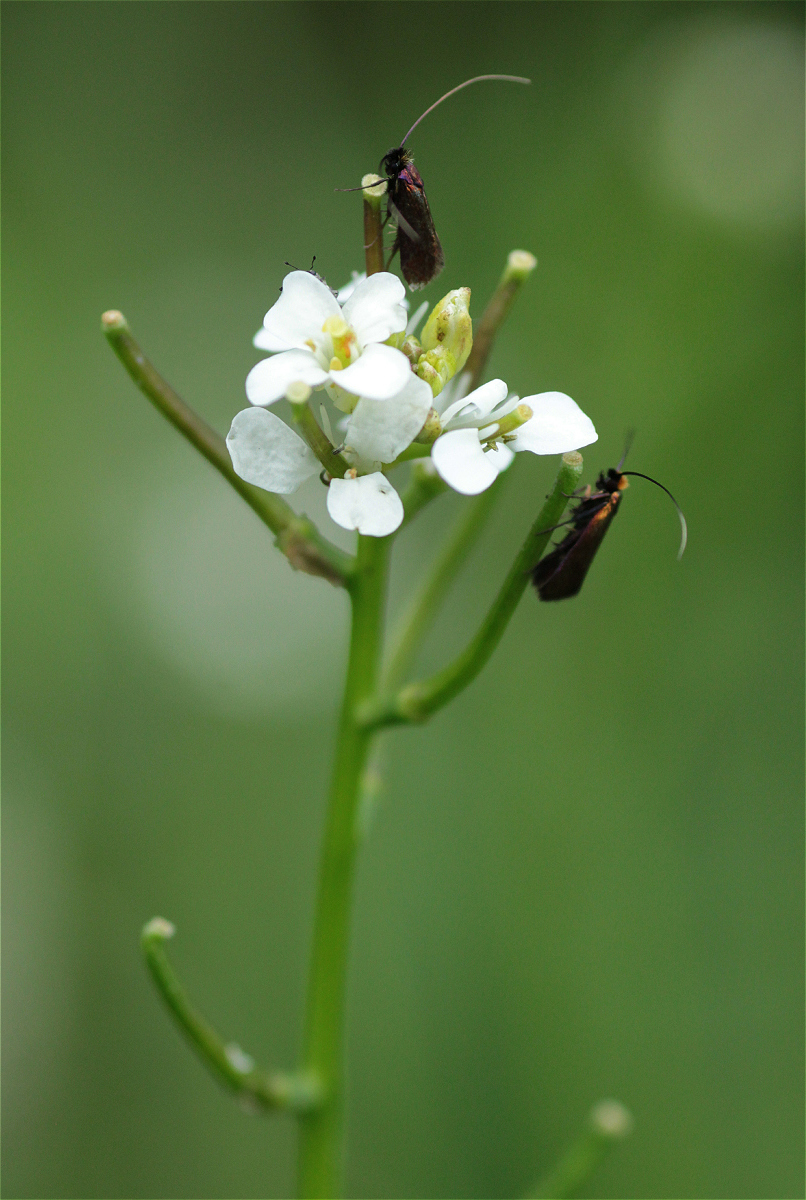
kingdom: Plantae
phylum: Tracheophyta
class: Magnoliopsida
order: Brassicales
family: Brassicaceae
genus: Alliaria
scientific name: Alliaria petiolata
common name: Garlic mustard
